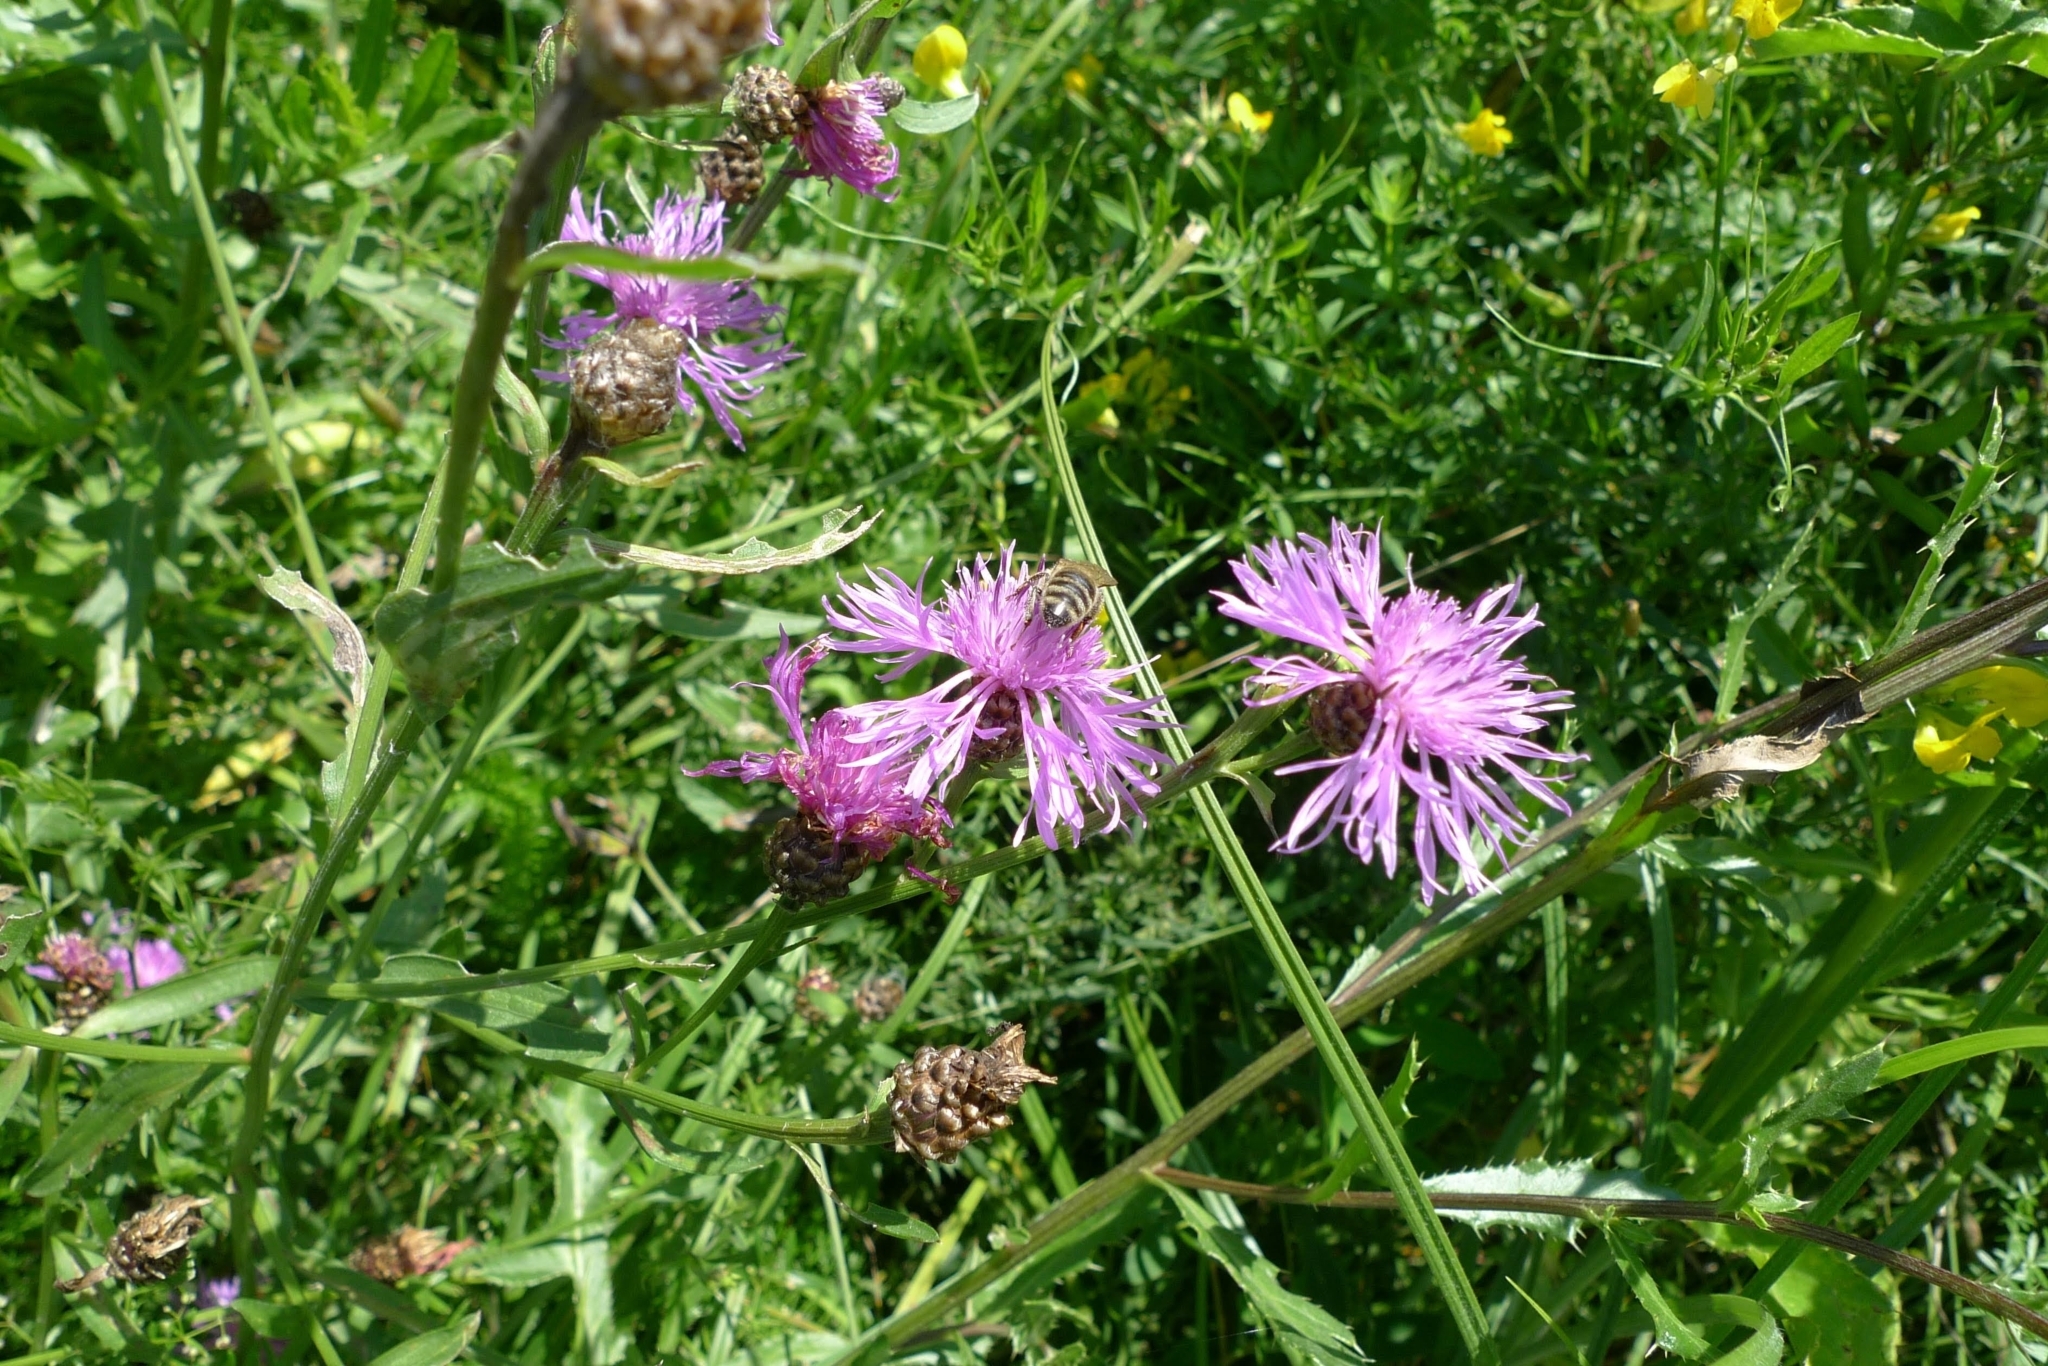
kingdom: Plantae
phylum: Tracheophyta
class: Magnoliopsida
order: Asterales
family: Asteraceae
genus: Centaurea
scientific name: Centaurea jacea
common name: Brown knapweed
